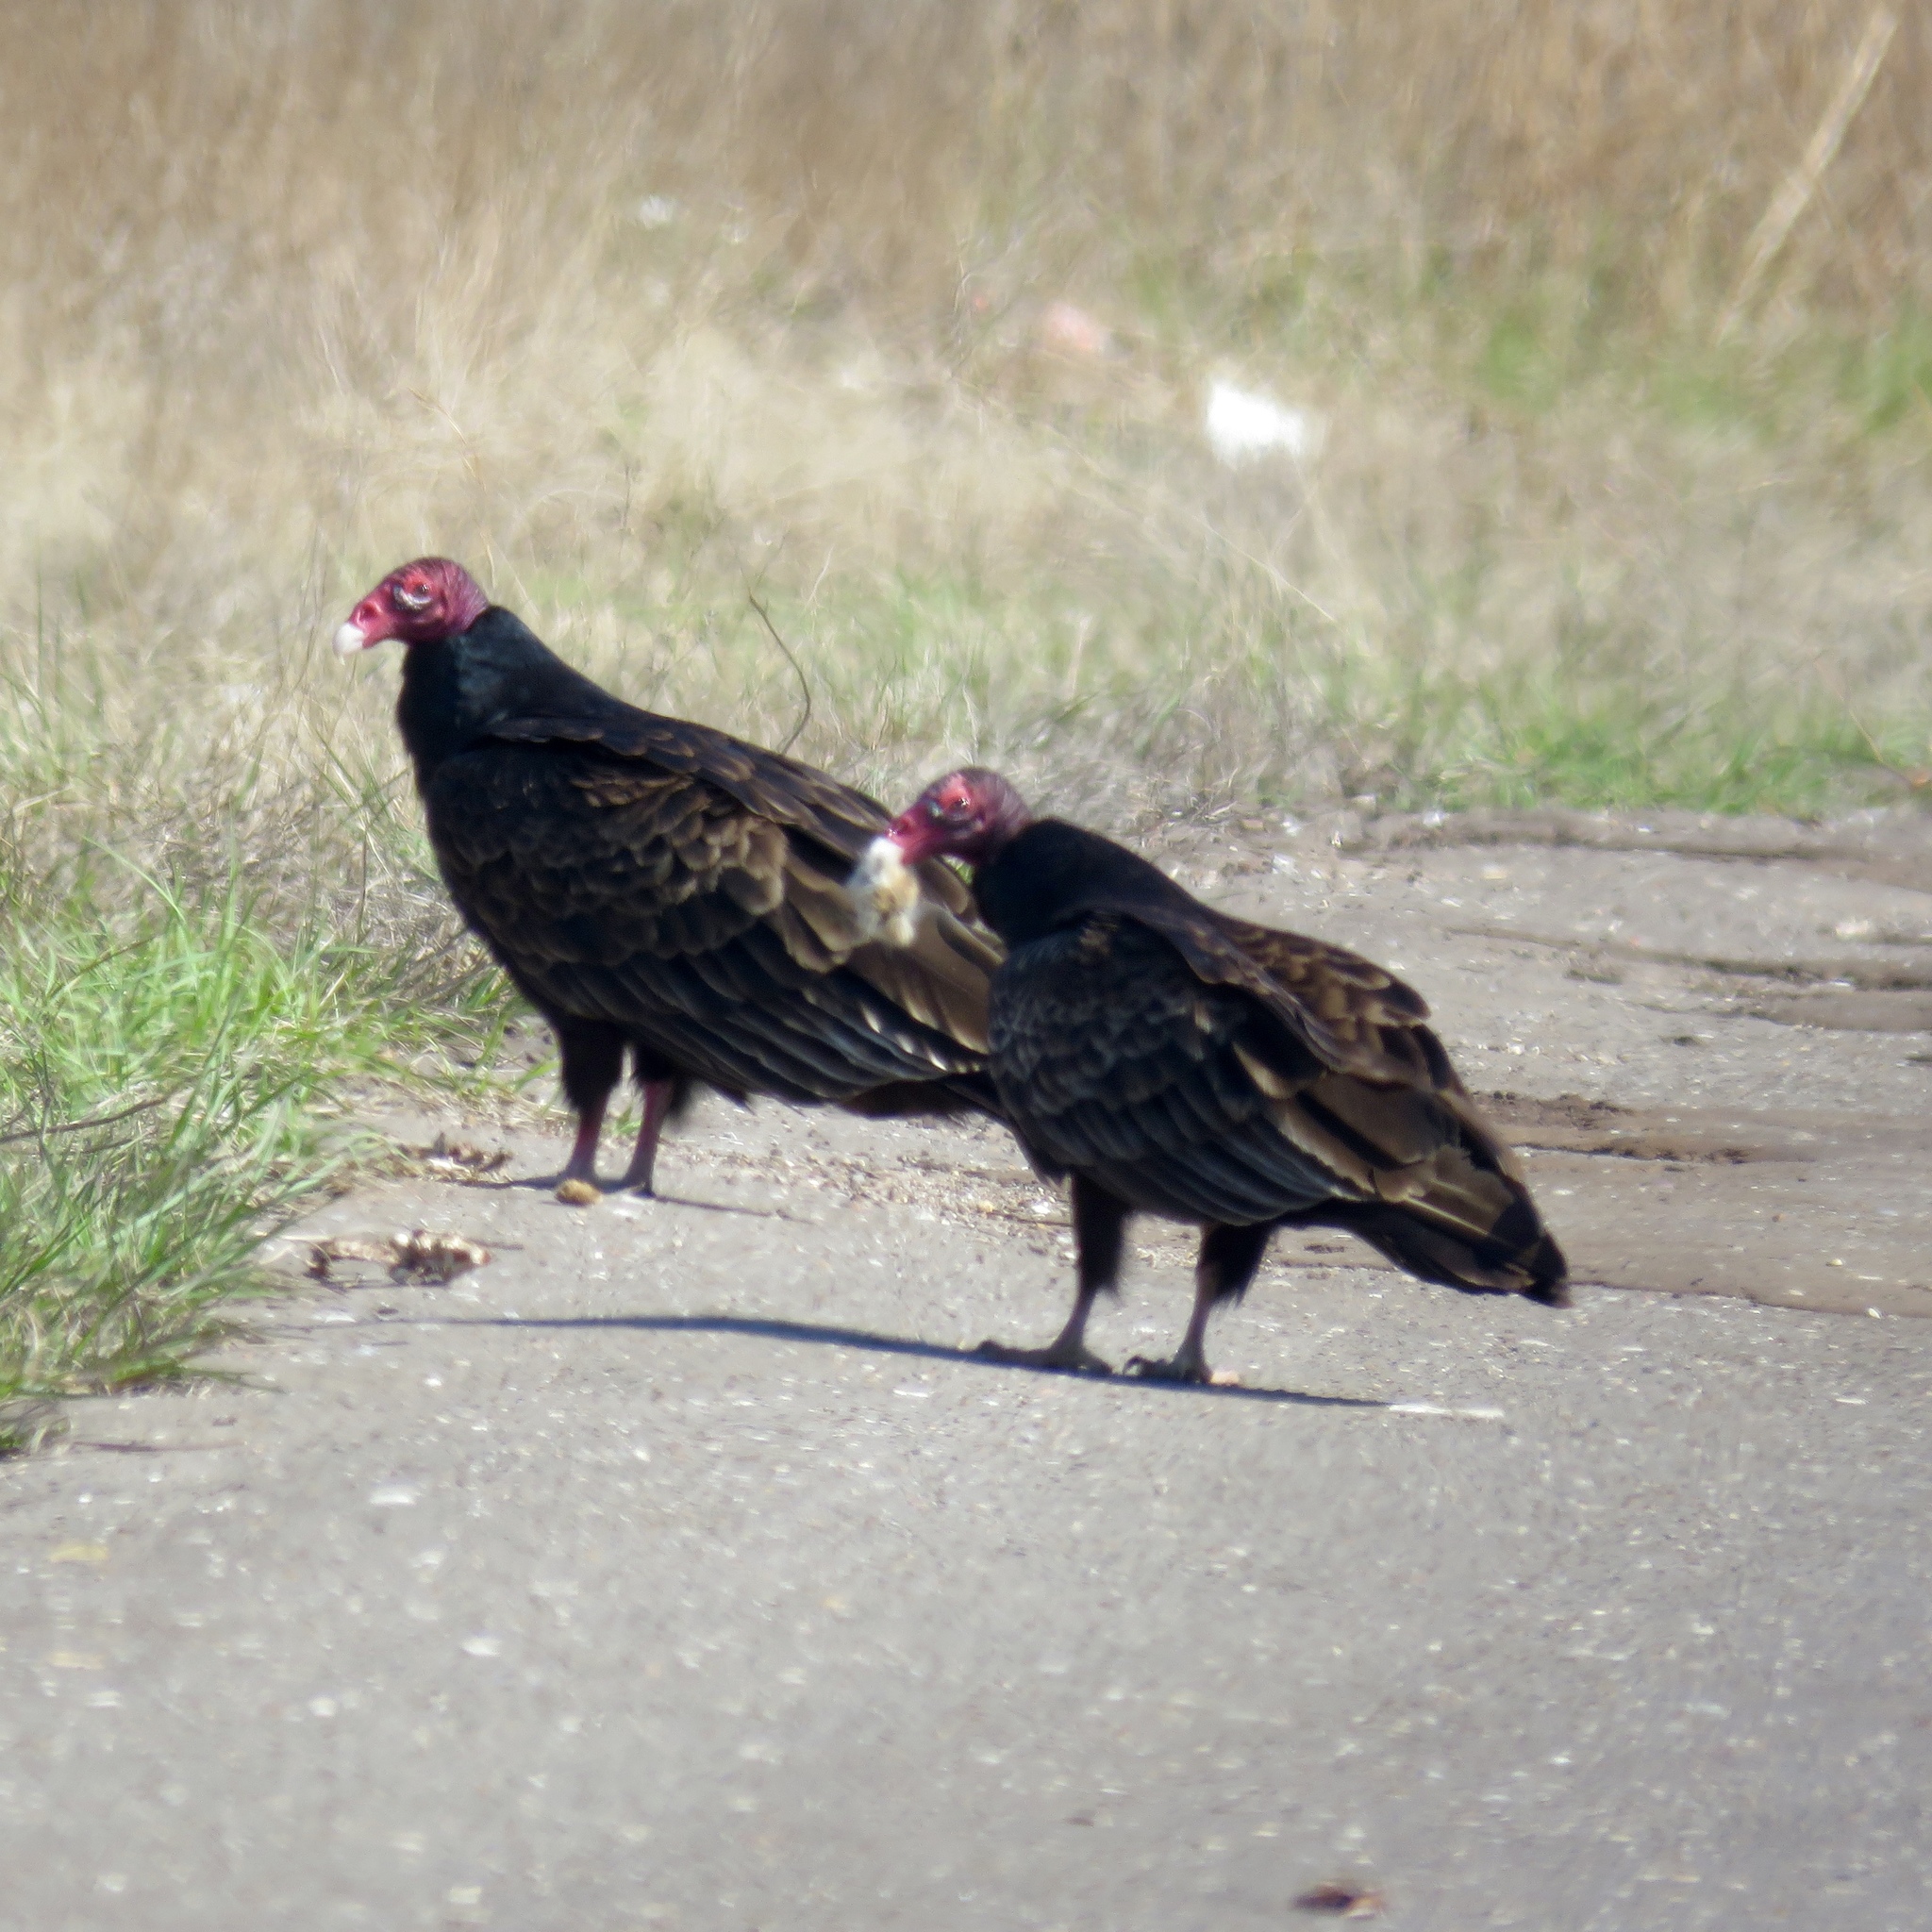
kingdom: Animalia
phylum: Chordata
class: Aves
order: Accipitriformes
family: Cathartidae
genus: Cathartes
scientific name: Cathartes aura
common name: Turkey vulture
